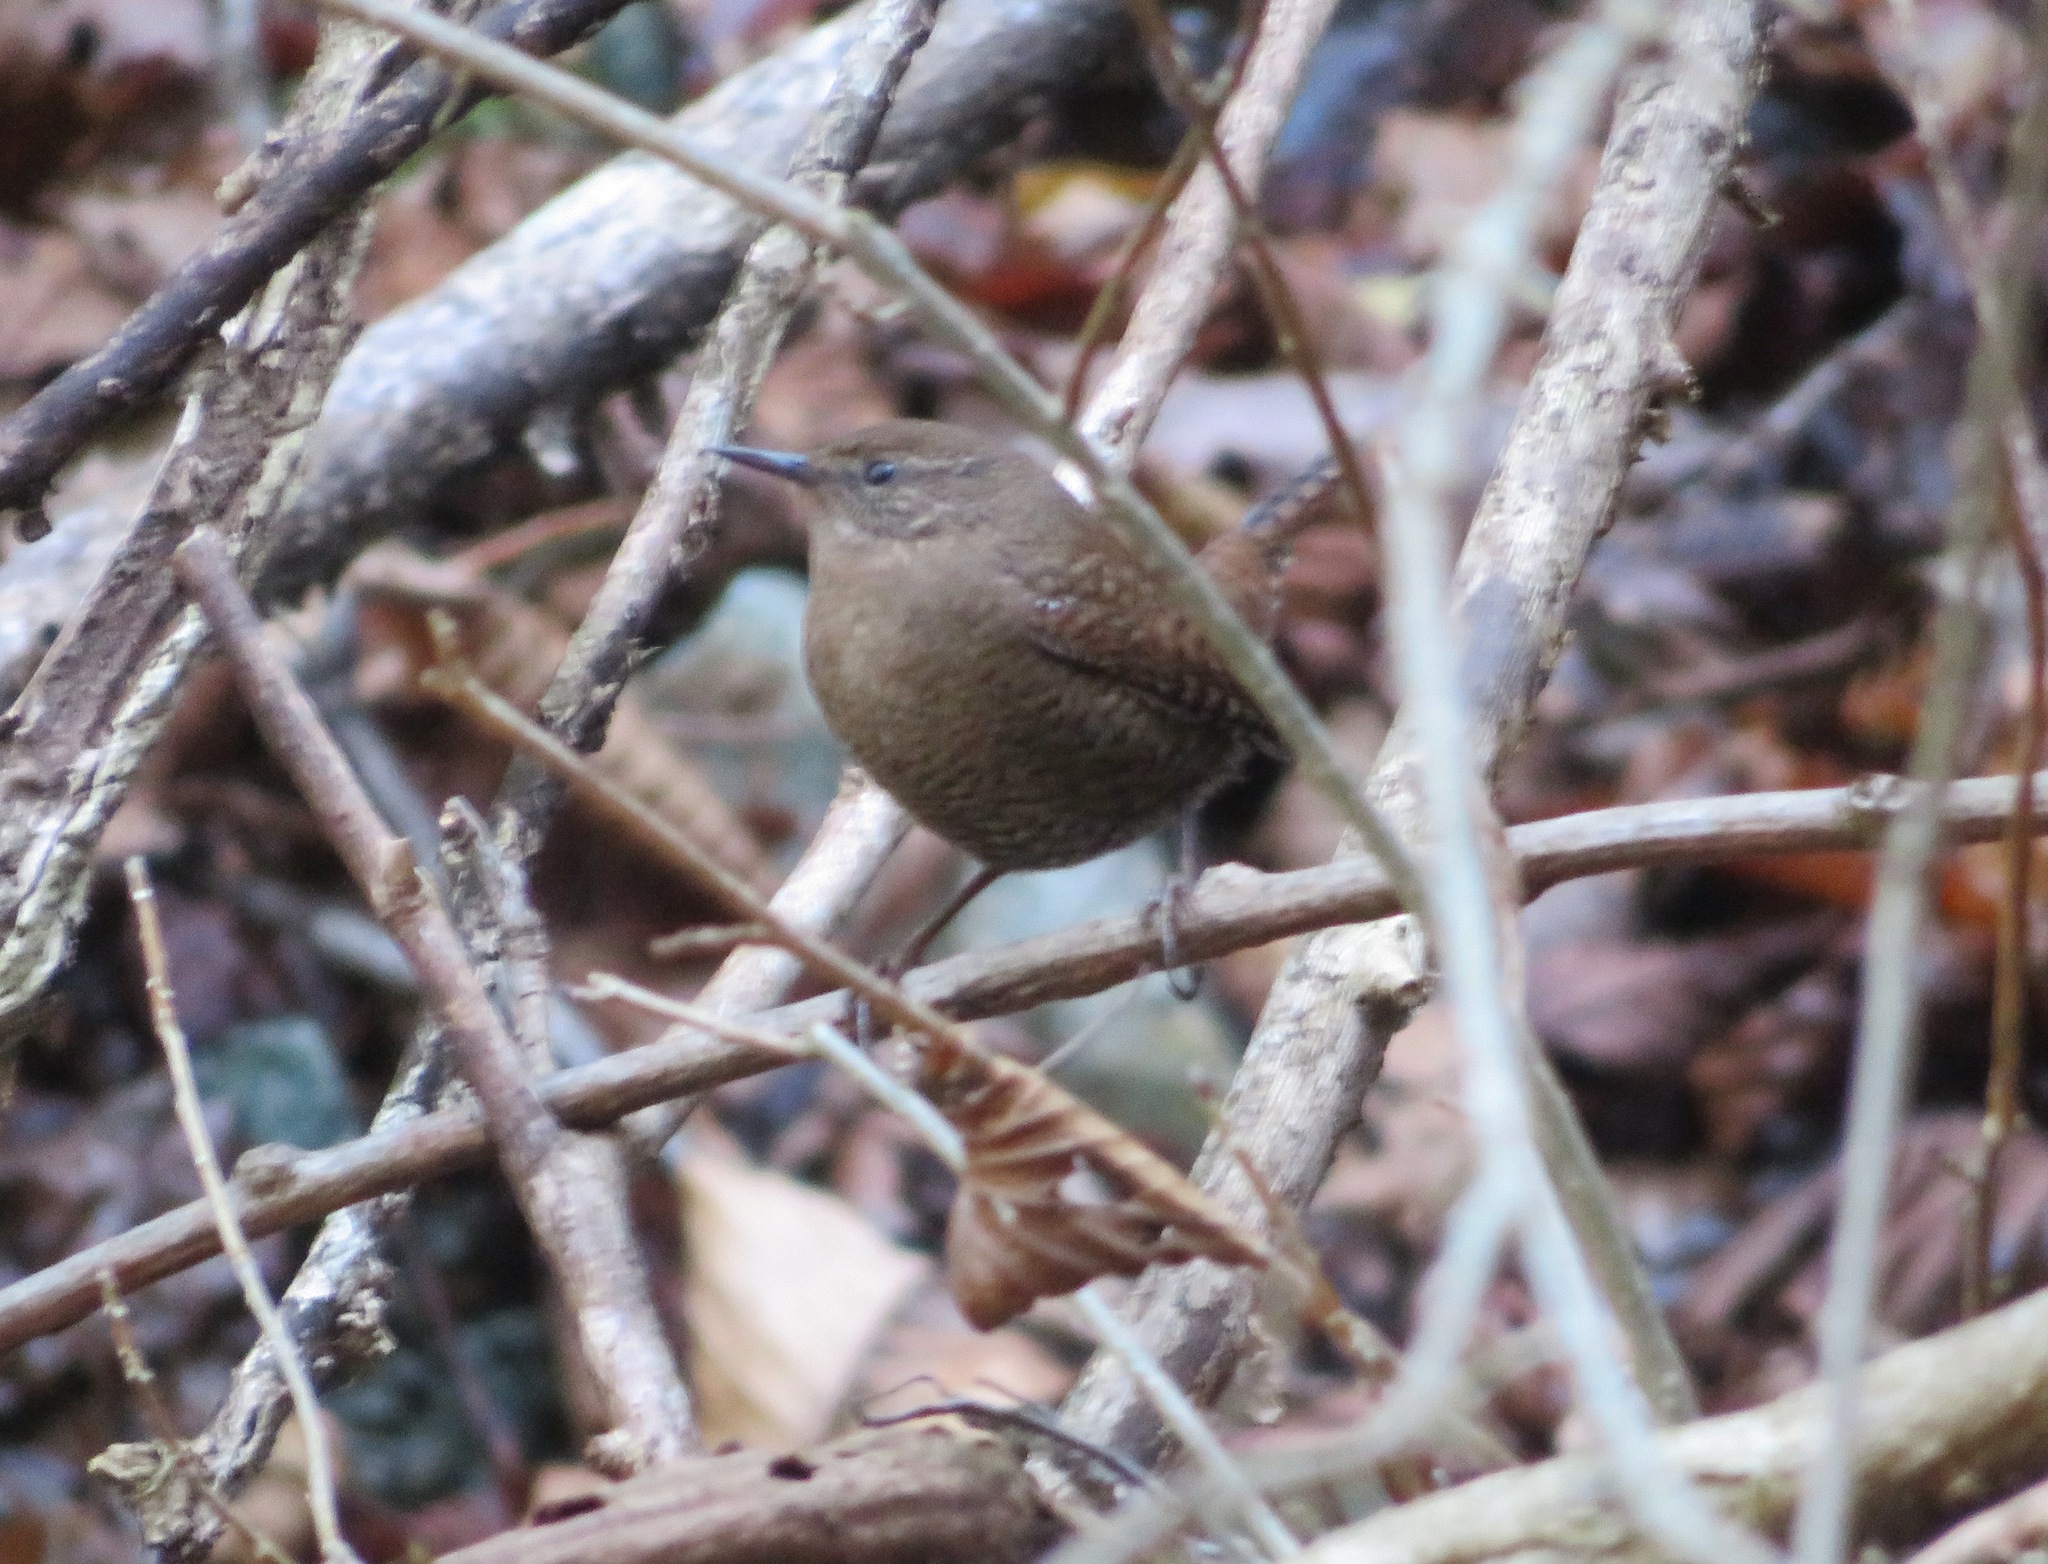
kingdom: Animalia
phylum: Chordata
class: Aves
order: Passeriformes
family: Troglodytidae
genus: Troglodytes
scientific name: Troglodytes troglodytes
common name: Eurasian wren
